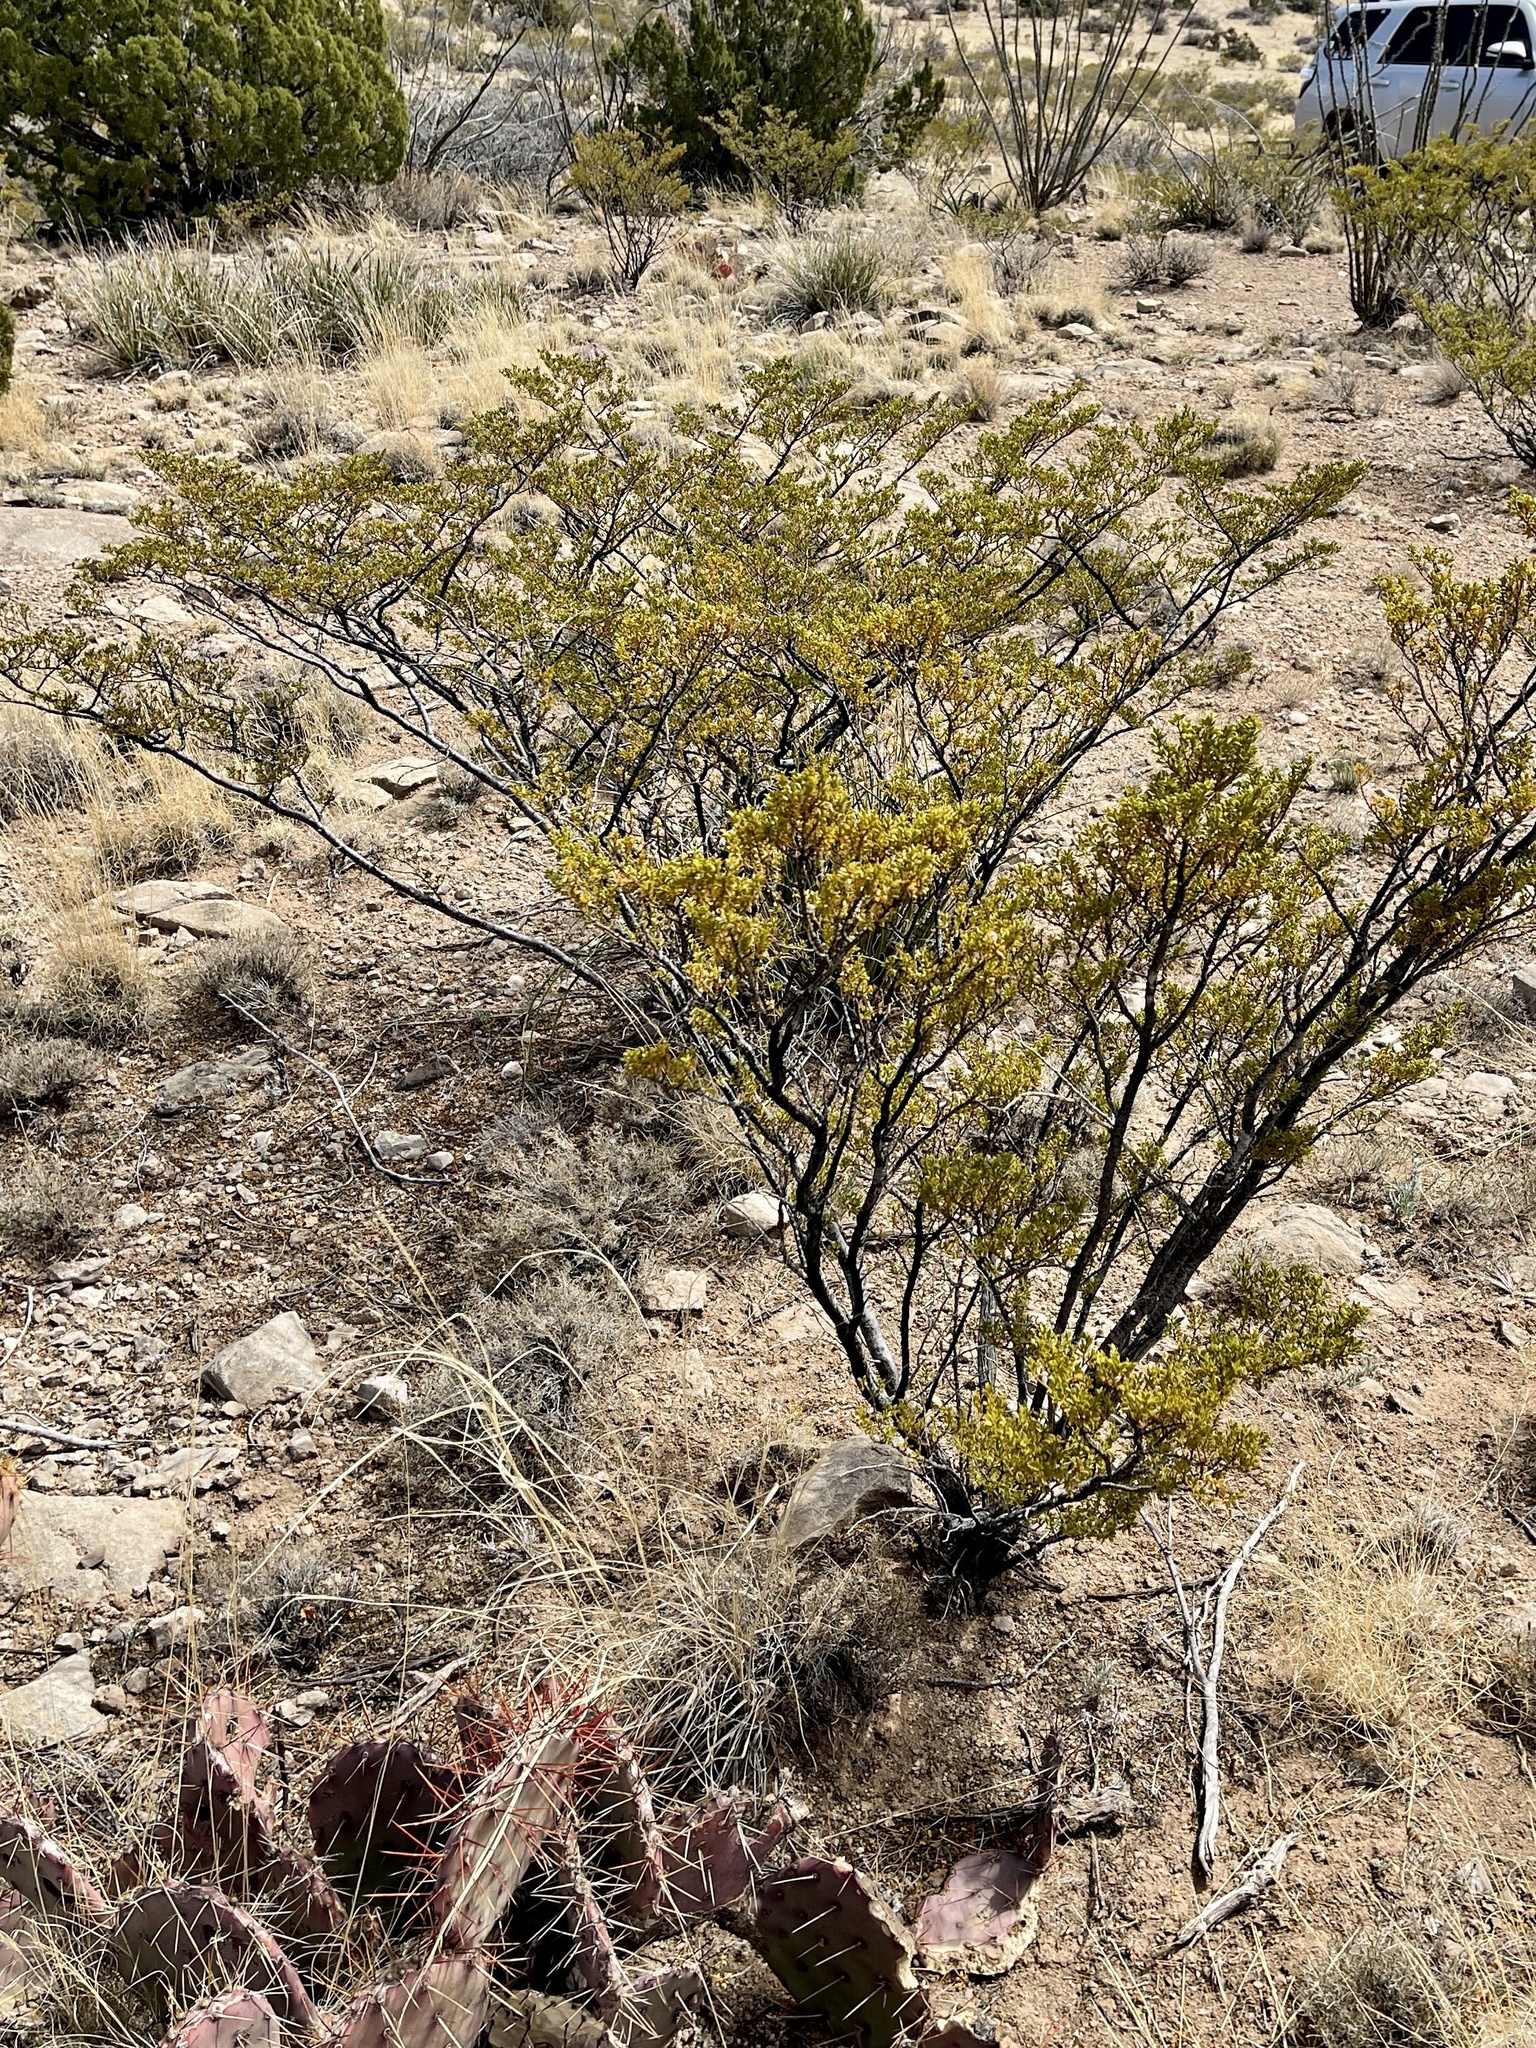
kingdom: Plantae
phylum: Tracheophyta
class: Magnoliopsida
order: Zygophyllales
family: Zygophyllaceae
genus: Larrea
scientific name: Larrea tridentata
